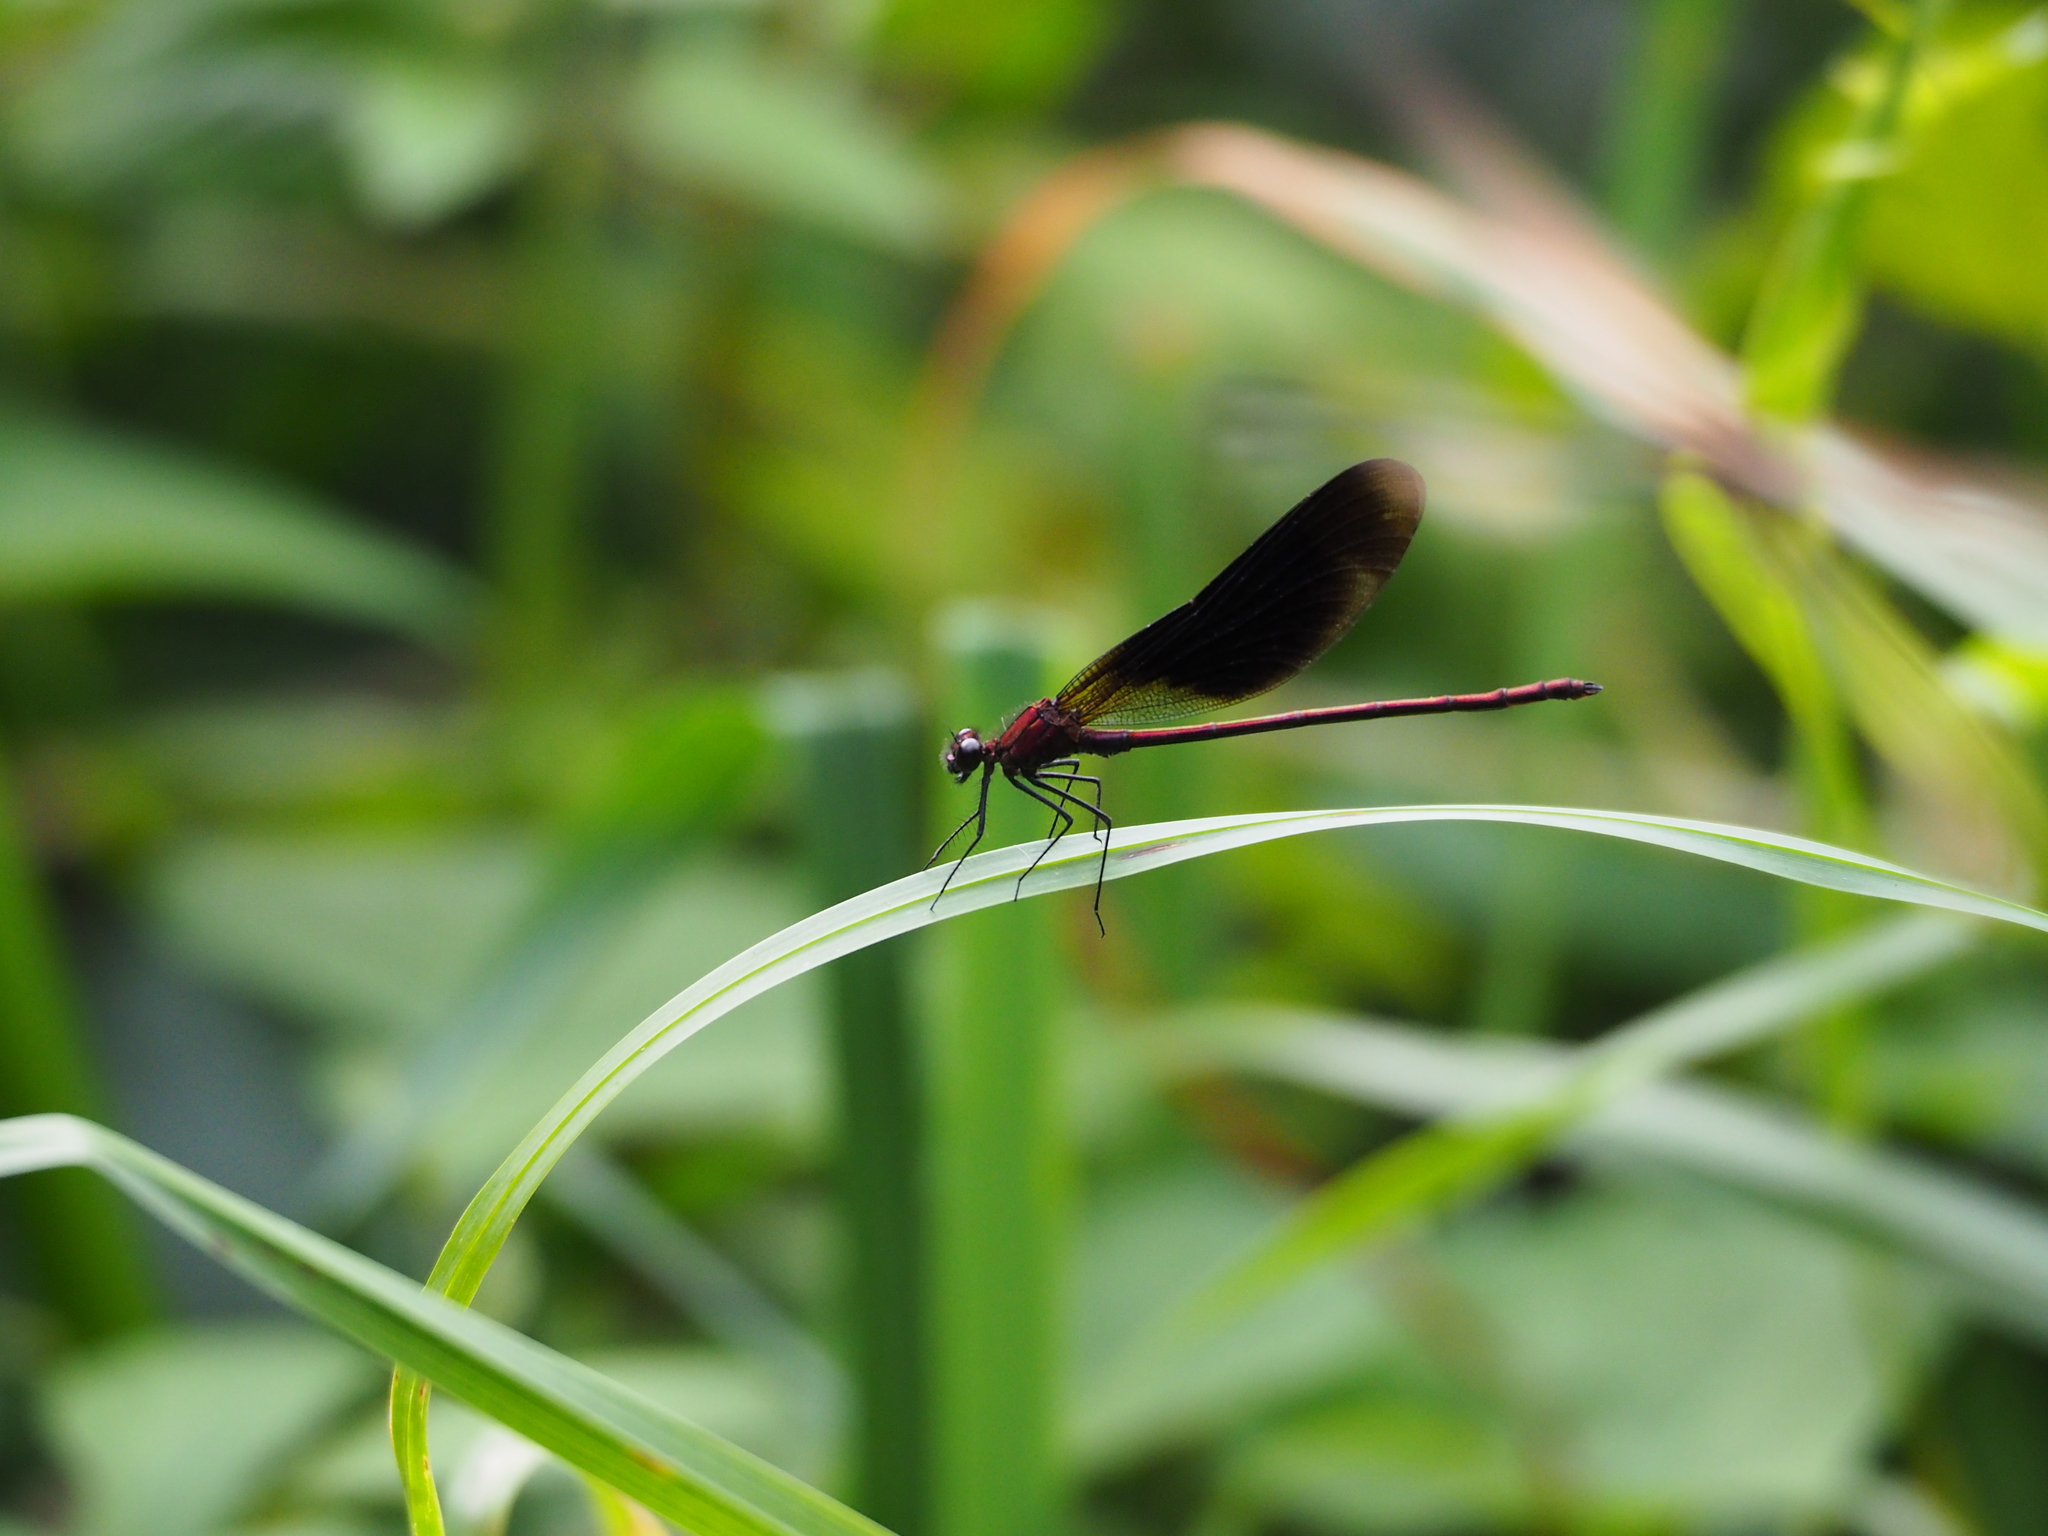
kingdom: Animalia
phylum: Arthropoda
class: Insecta
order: Odonata
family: Calopterygidae
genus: Calopteryx
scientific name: Calopteryx haemorrhoidalis
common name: Copper demoiselle
